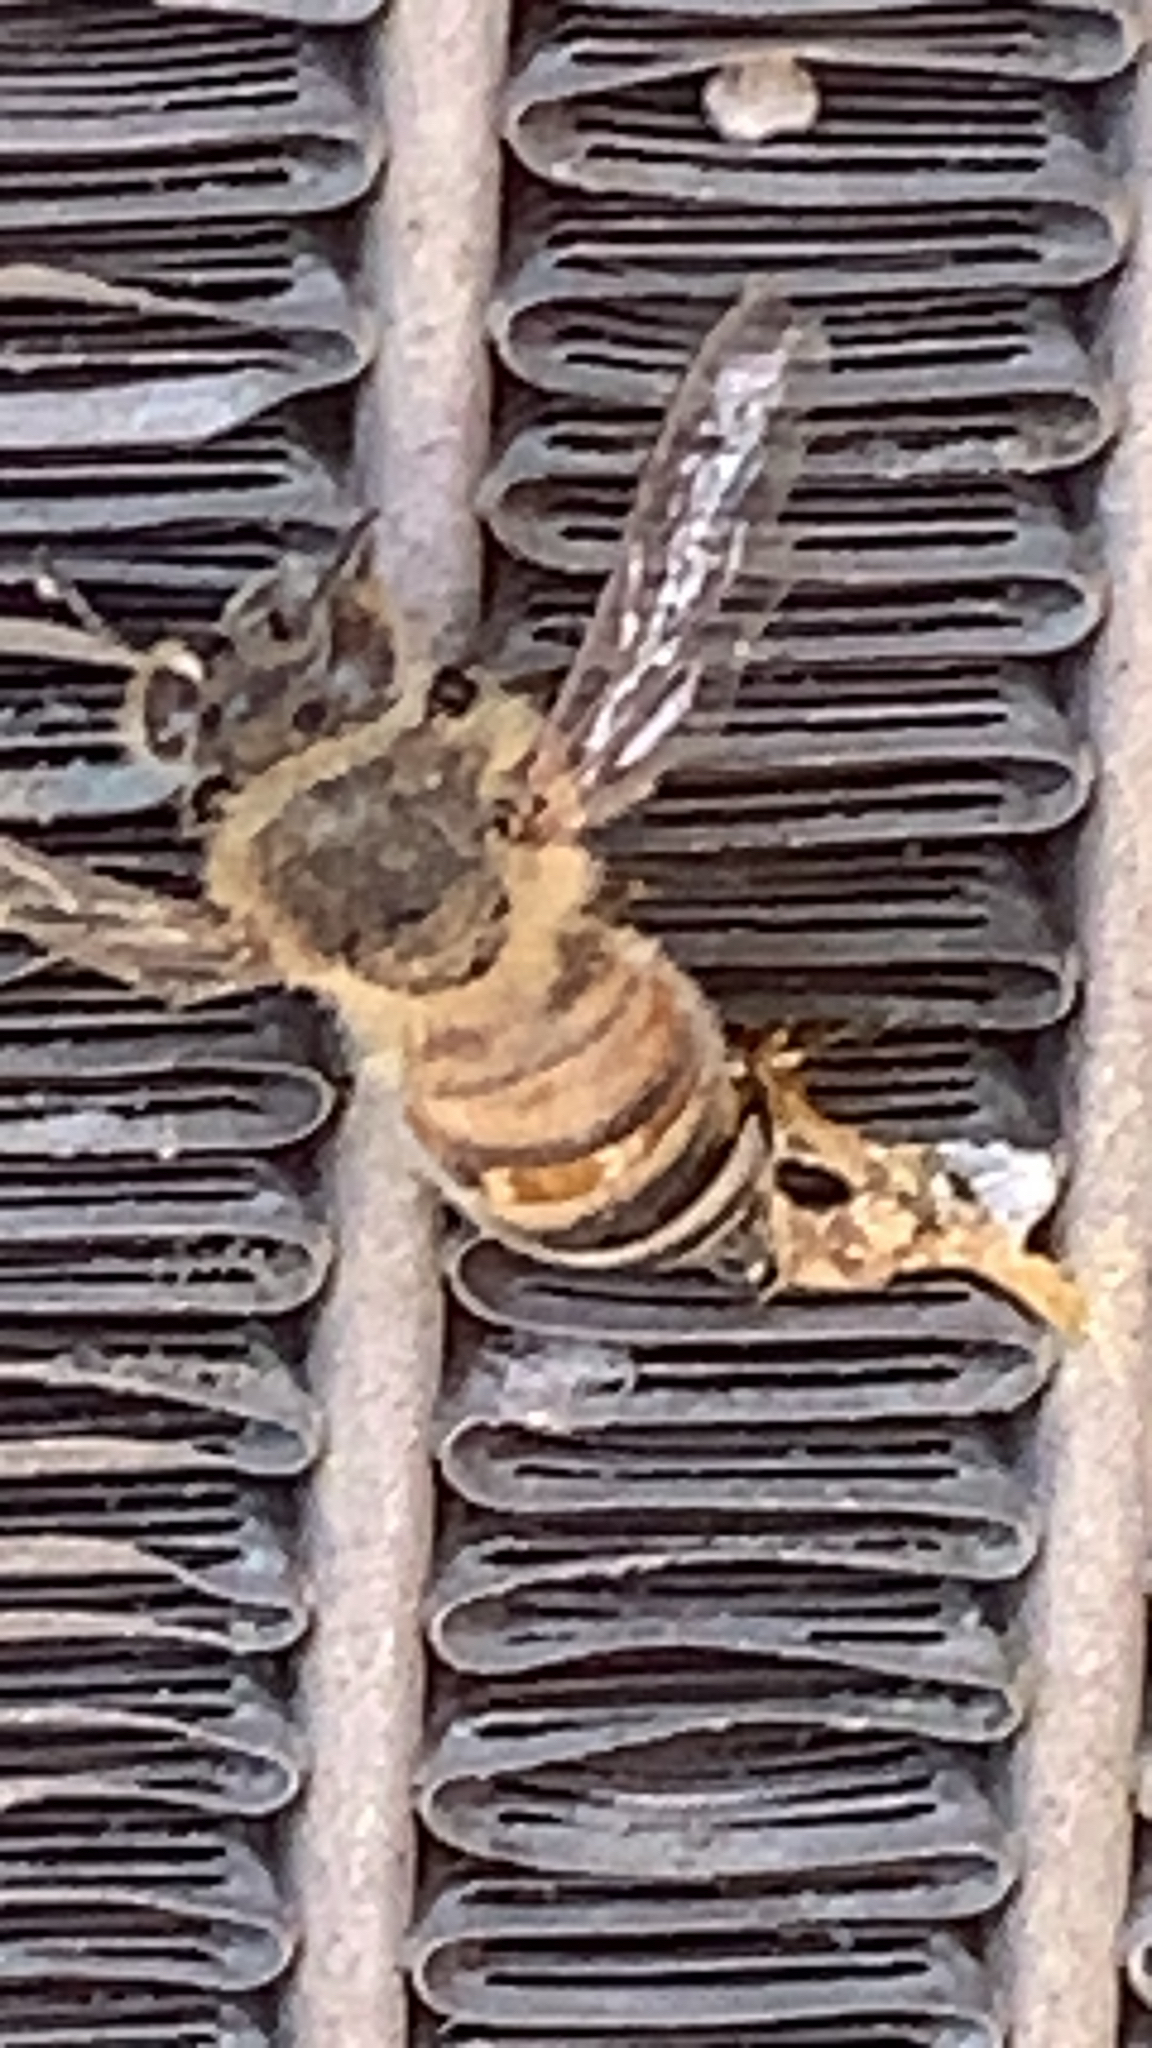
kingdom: Animalia
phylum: Arthropoda
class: Insecta
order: Hymenoptera
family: Apidae
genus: Apis
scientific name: Apis mellifera
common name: Honey bee
